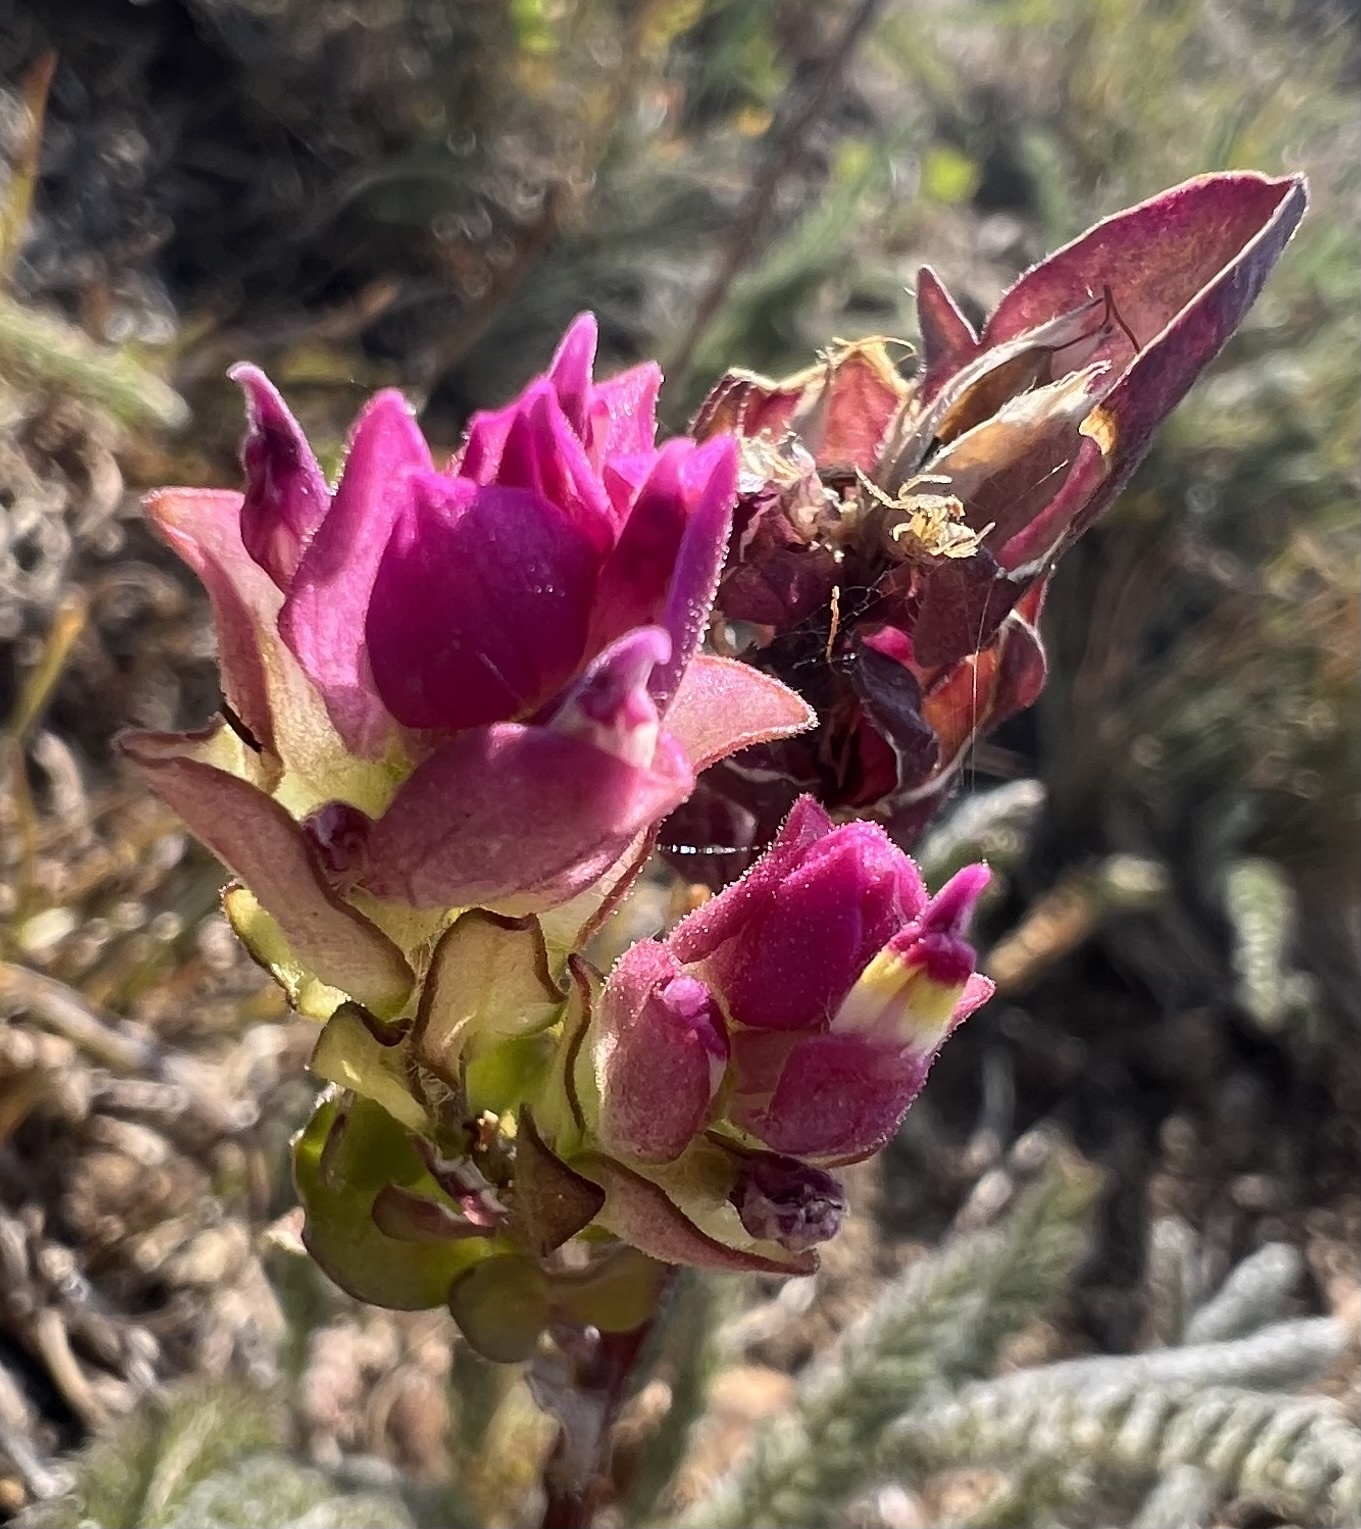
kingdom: Plantae
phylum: Tracheophyta
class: Magnoliopsida
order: Lamiales
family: Orobanchaceae
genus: Orthocarpus
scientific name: Orthocarpus imbricatus
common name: Mountain owl's-clover
